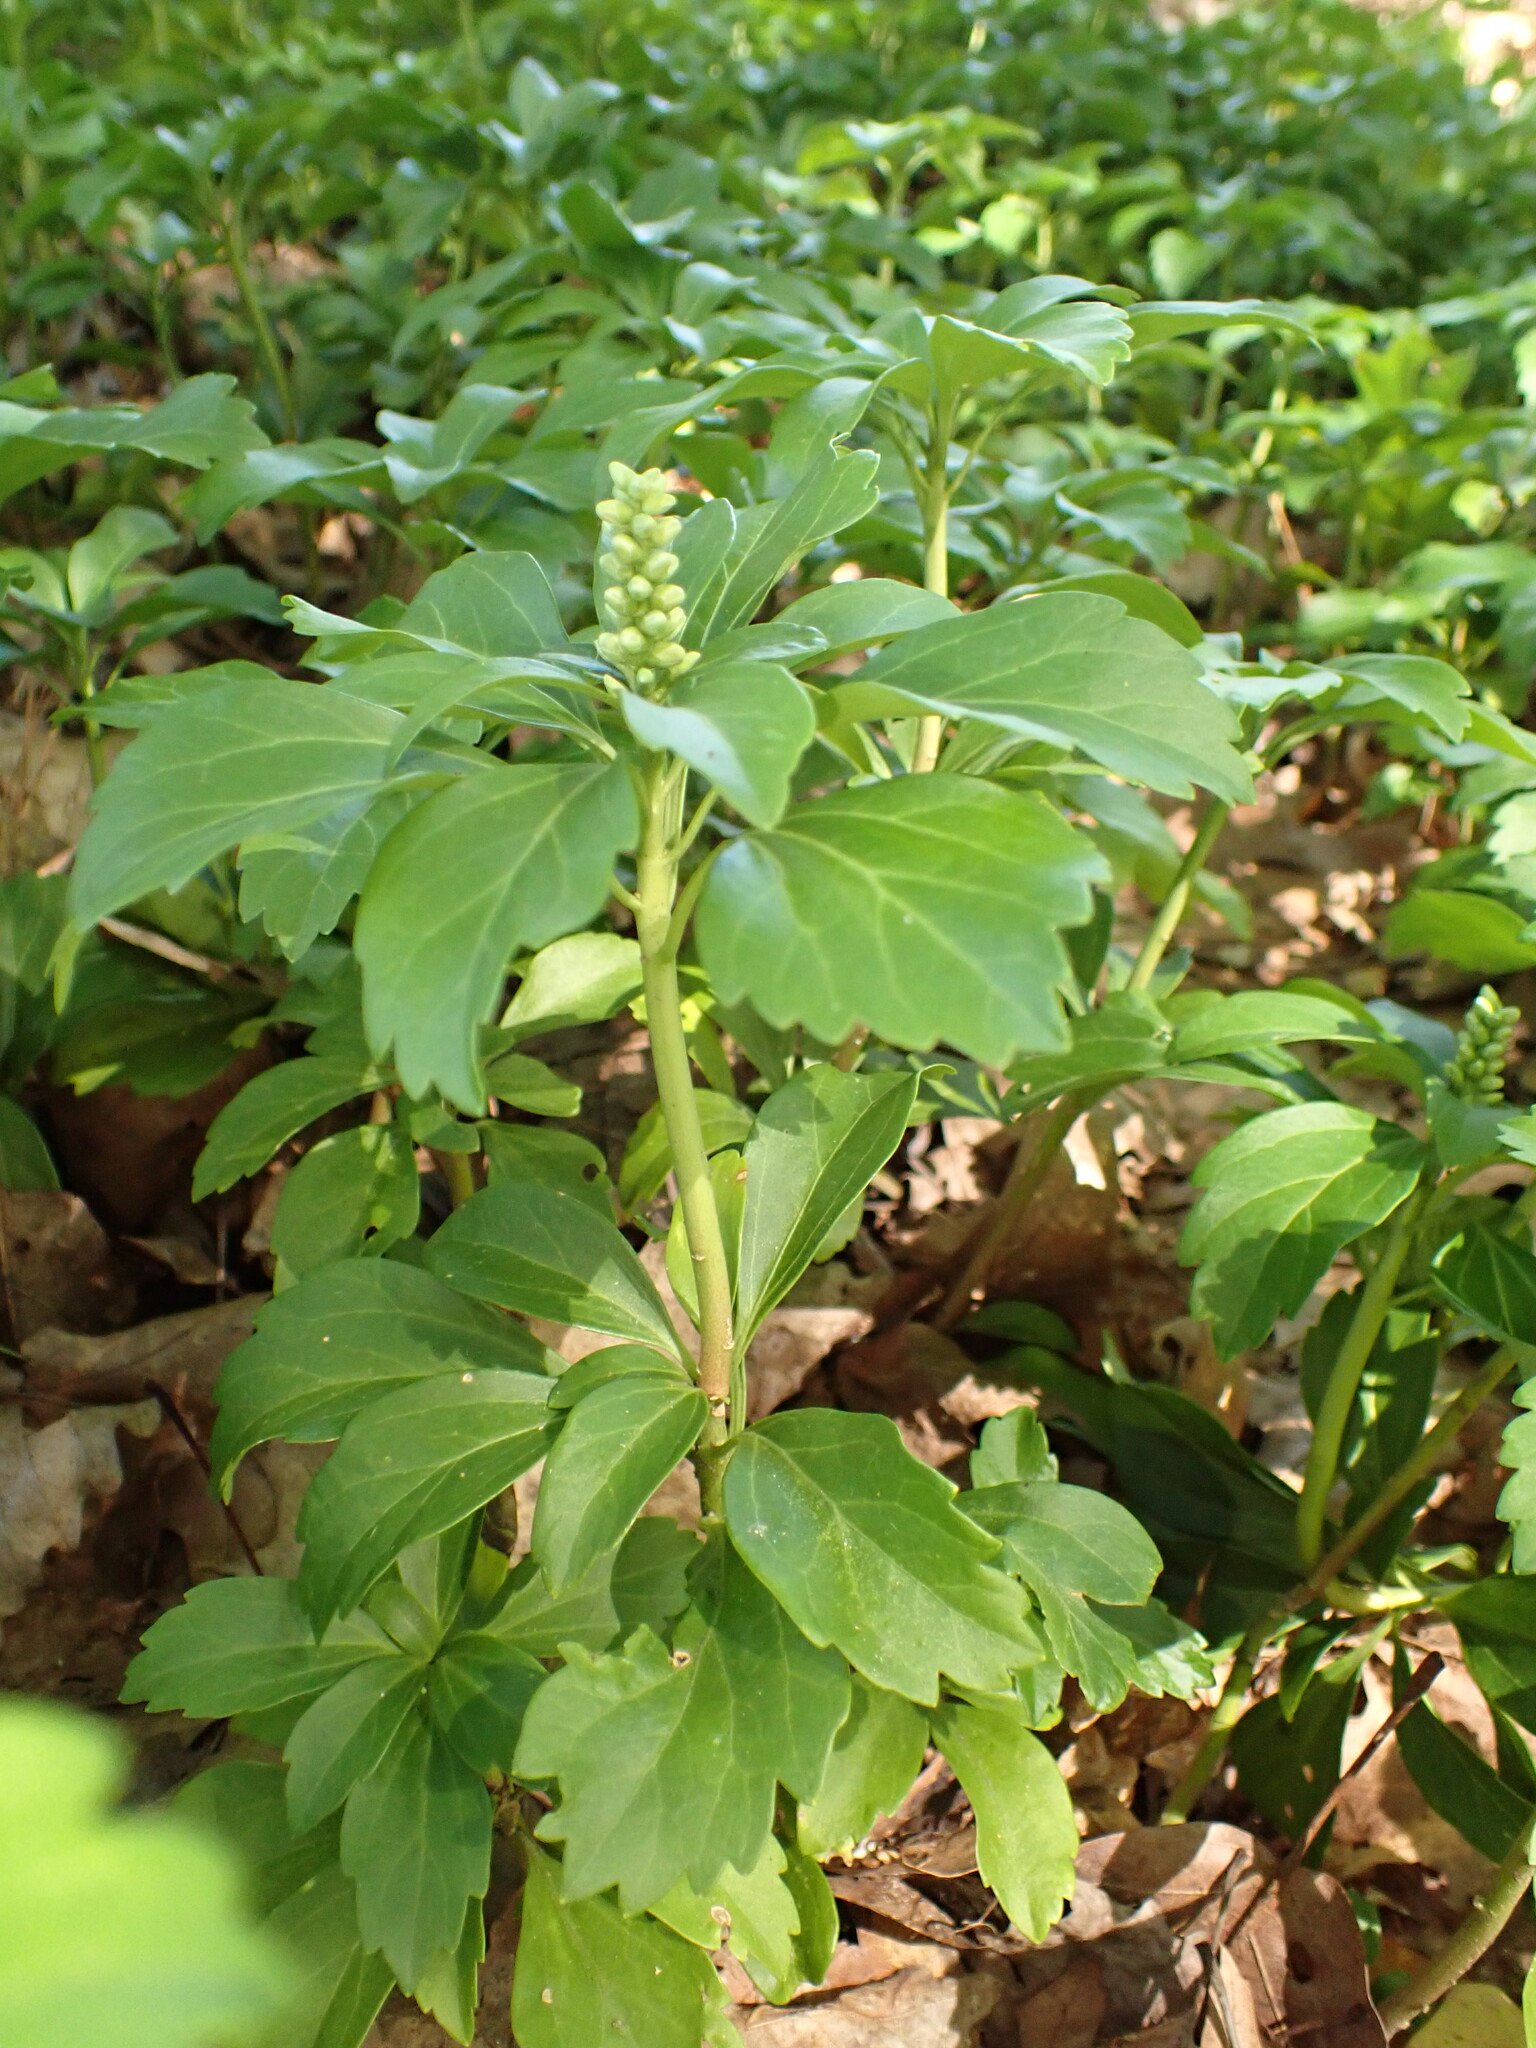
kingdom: Plantae
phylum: Tracheophyta
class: Magnoliopsida
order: Buxales
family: Buxaceae
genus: Pachysandra
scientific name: Pachysandra terminalis
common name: Japanese pachysandra
